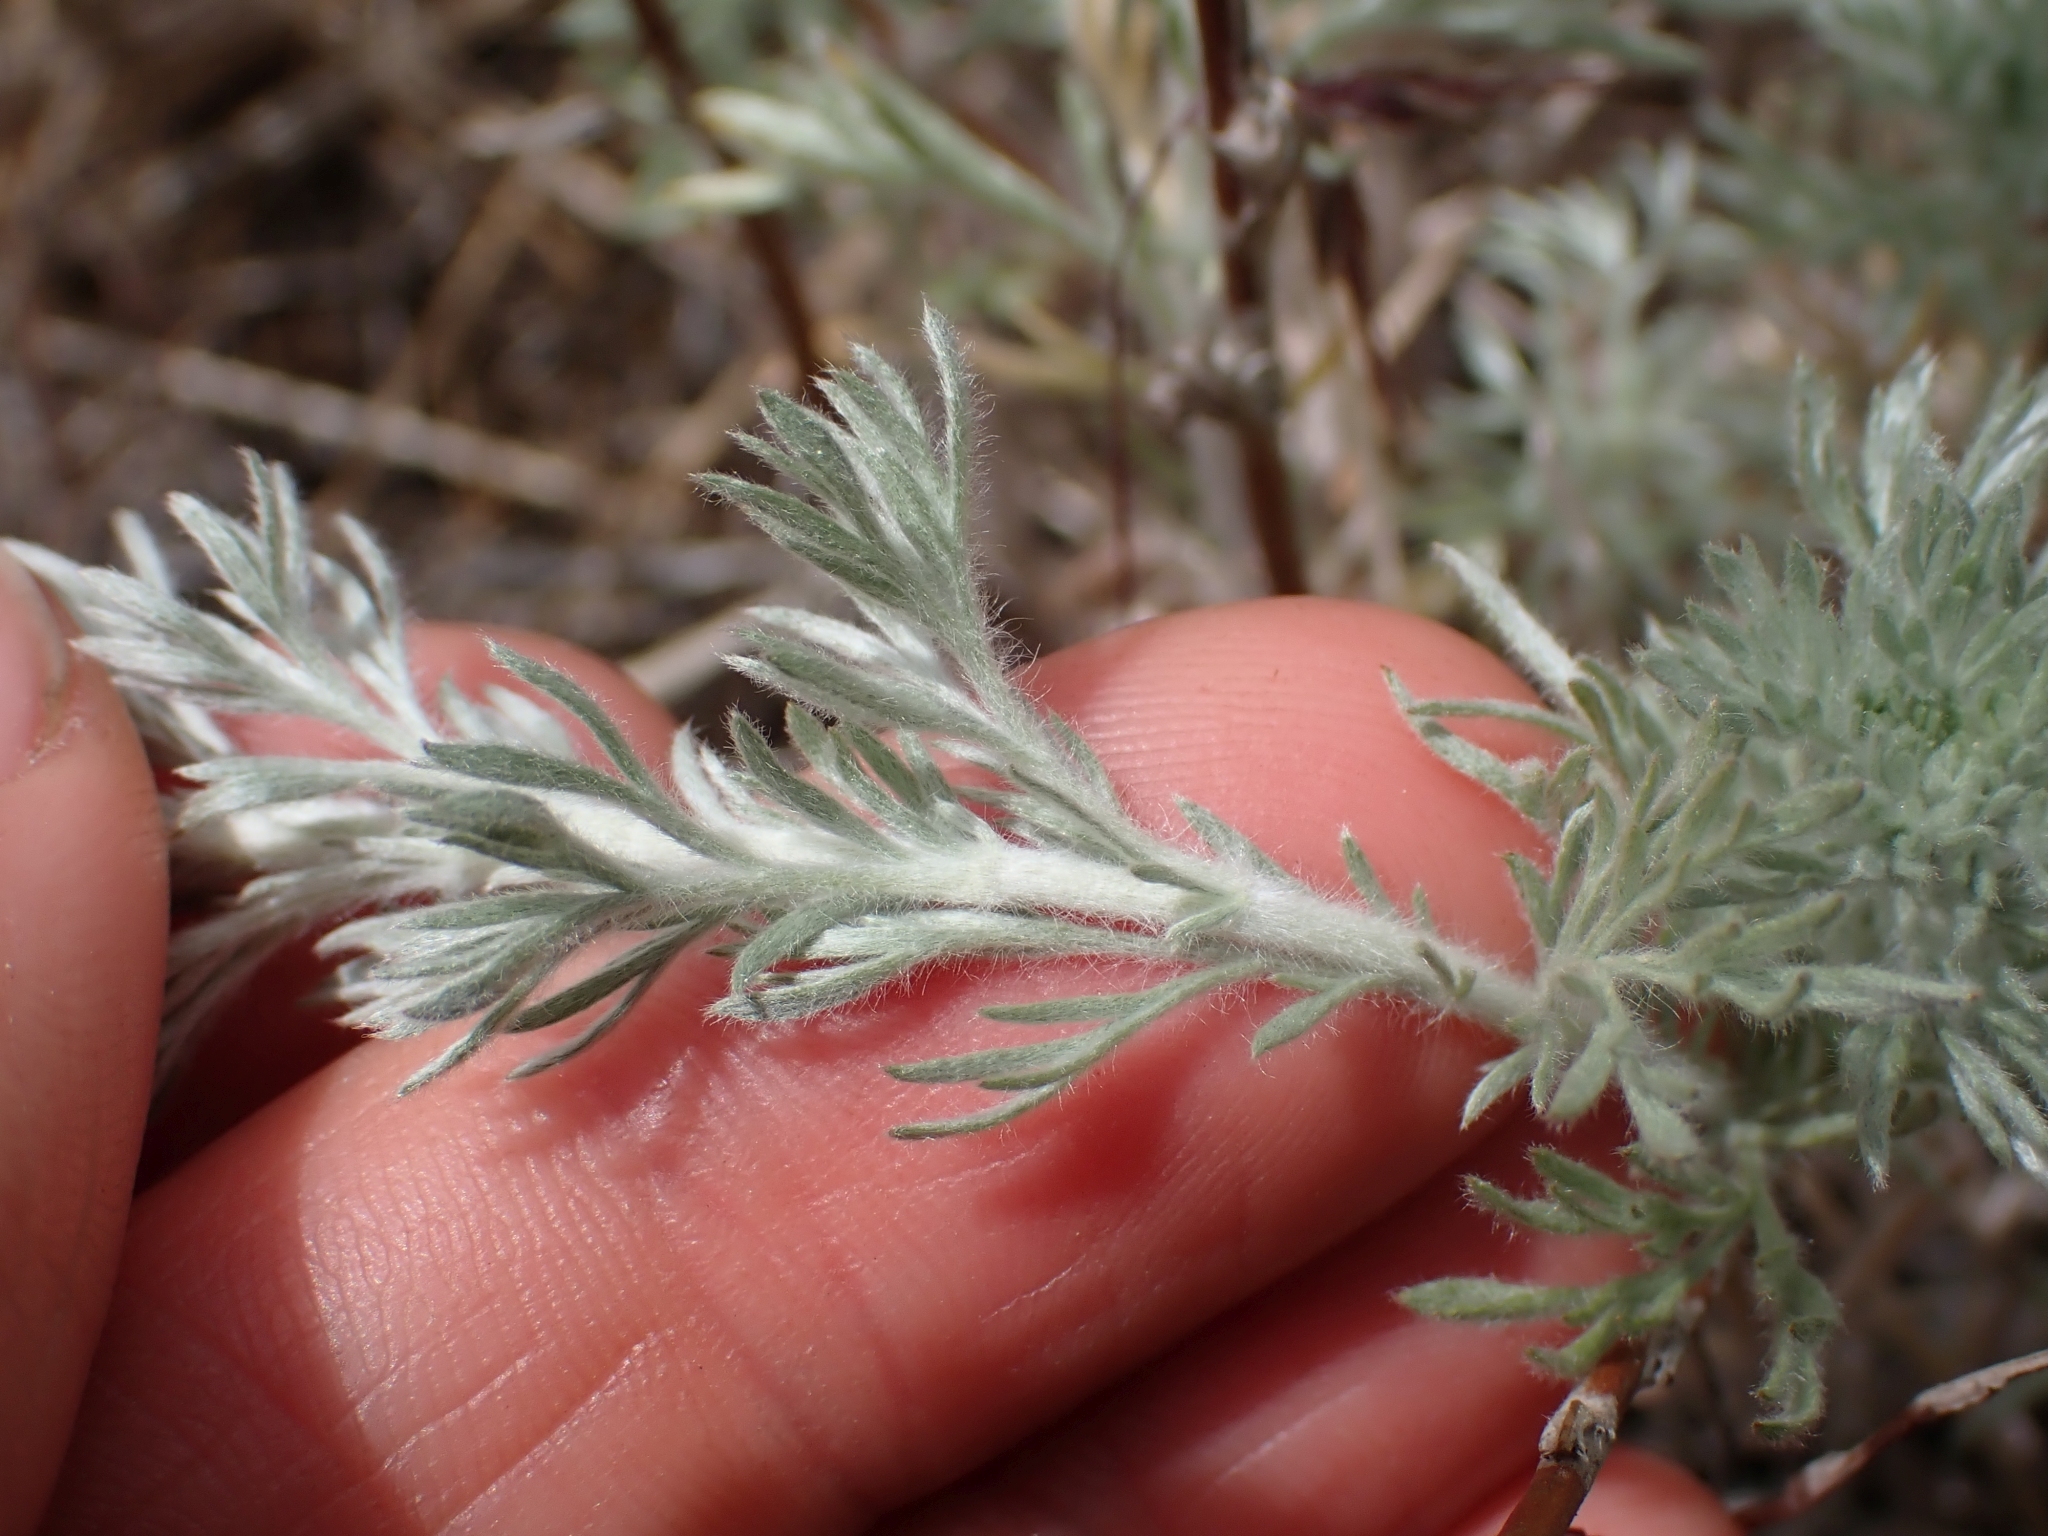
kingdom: Plantae
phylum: Tracheophyta
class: Magnoliopsida
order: Asterales
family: Asteraceae
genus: Artemisia
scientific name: Artemisia frigida
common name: Prairie sagewort
